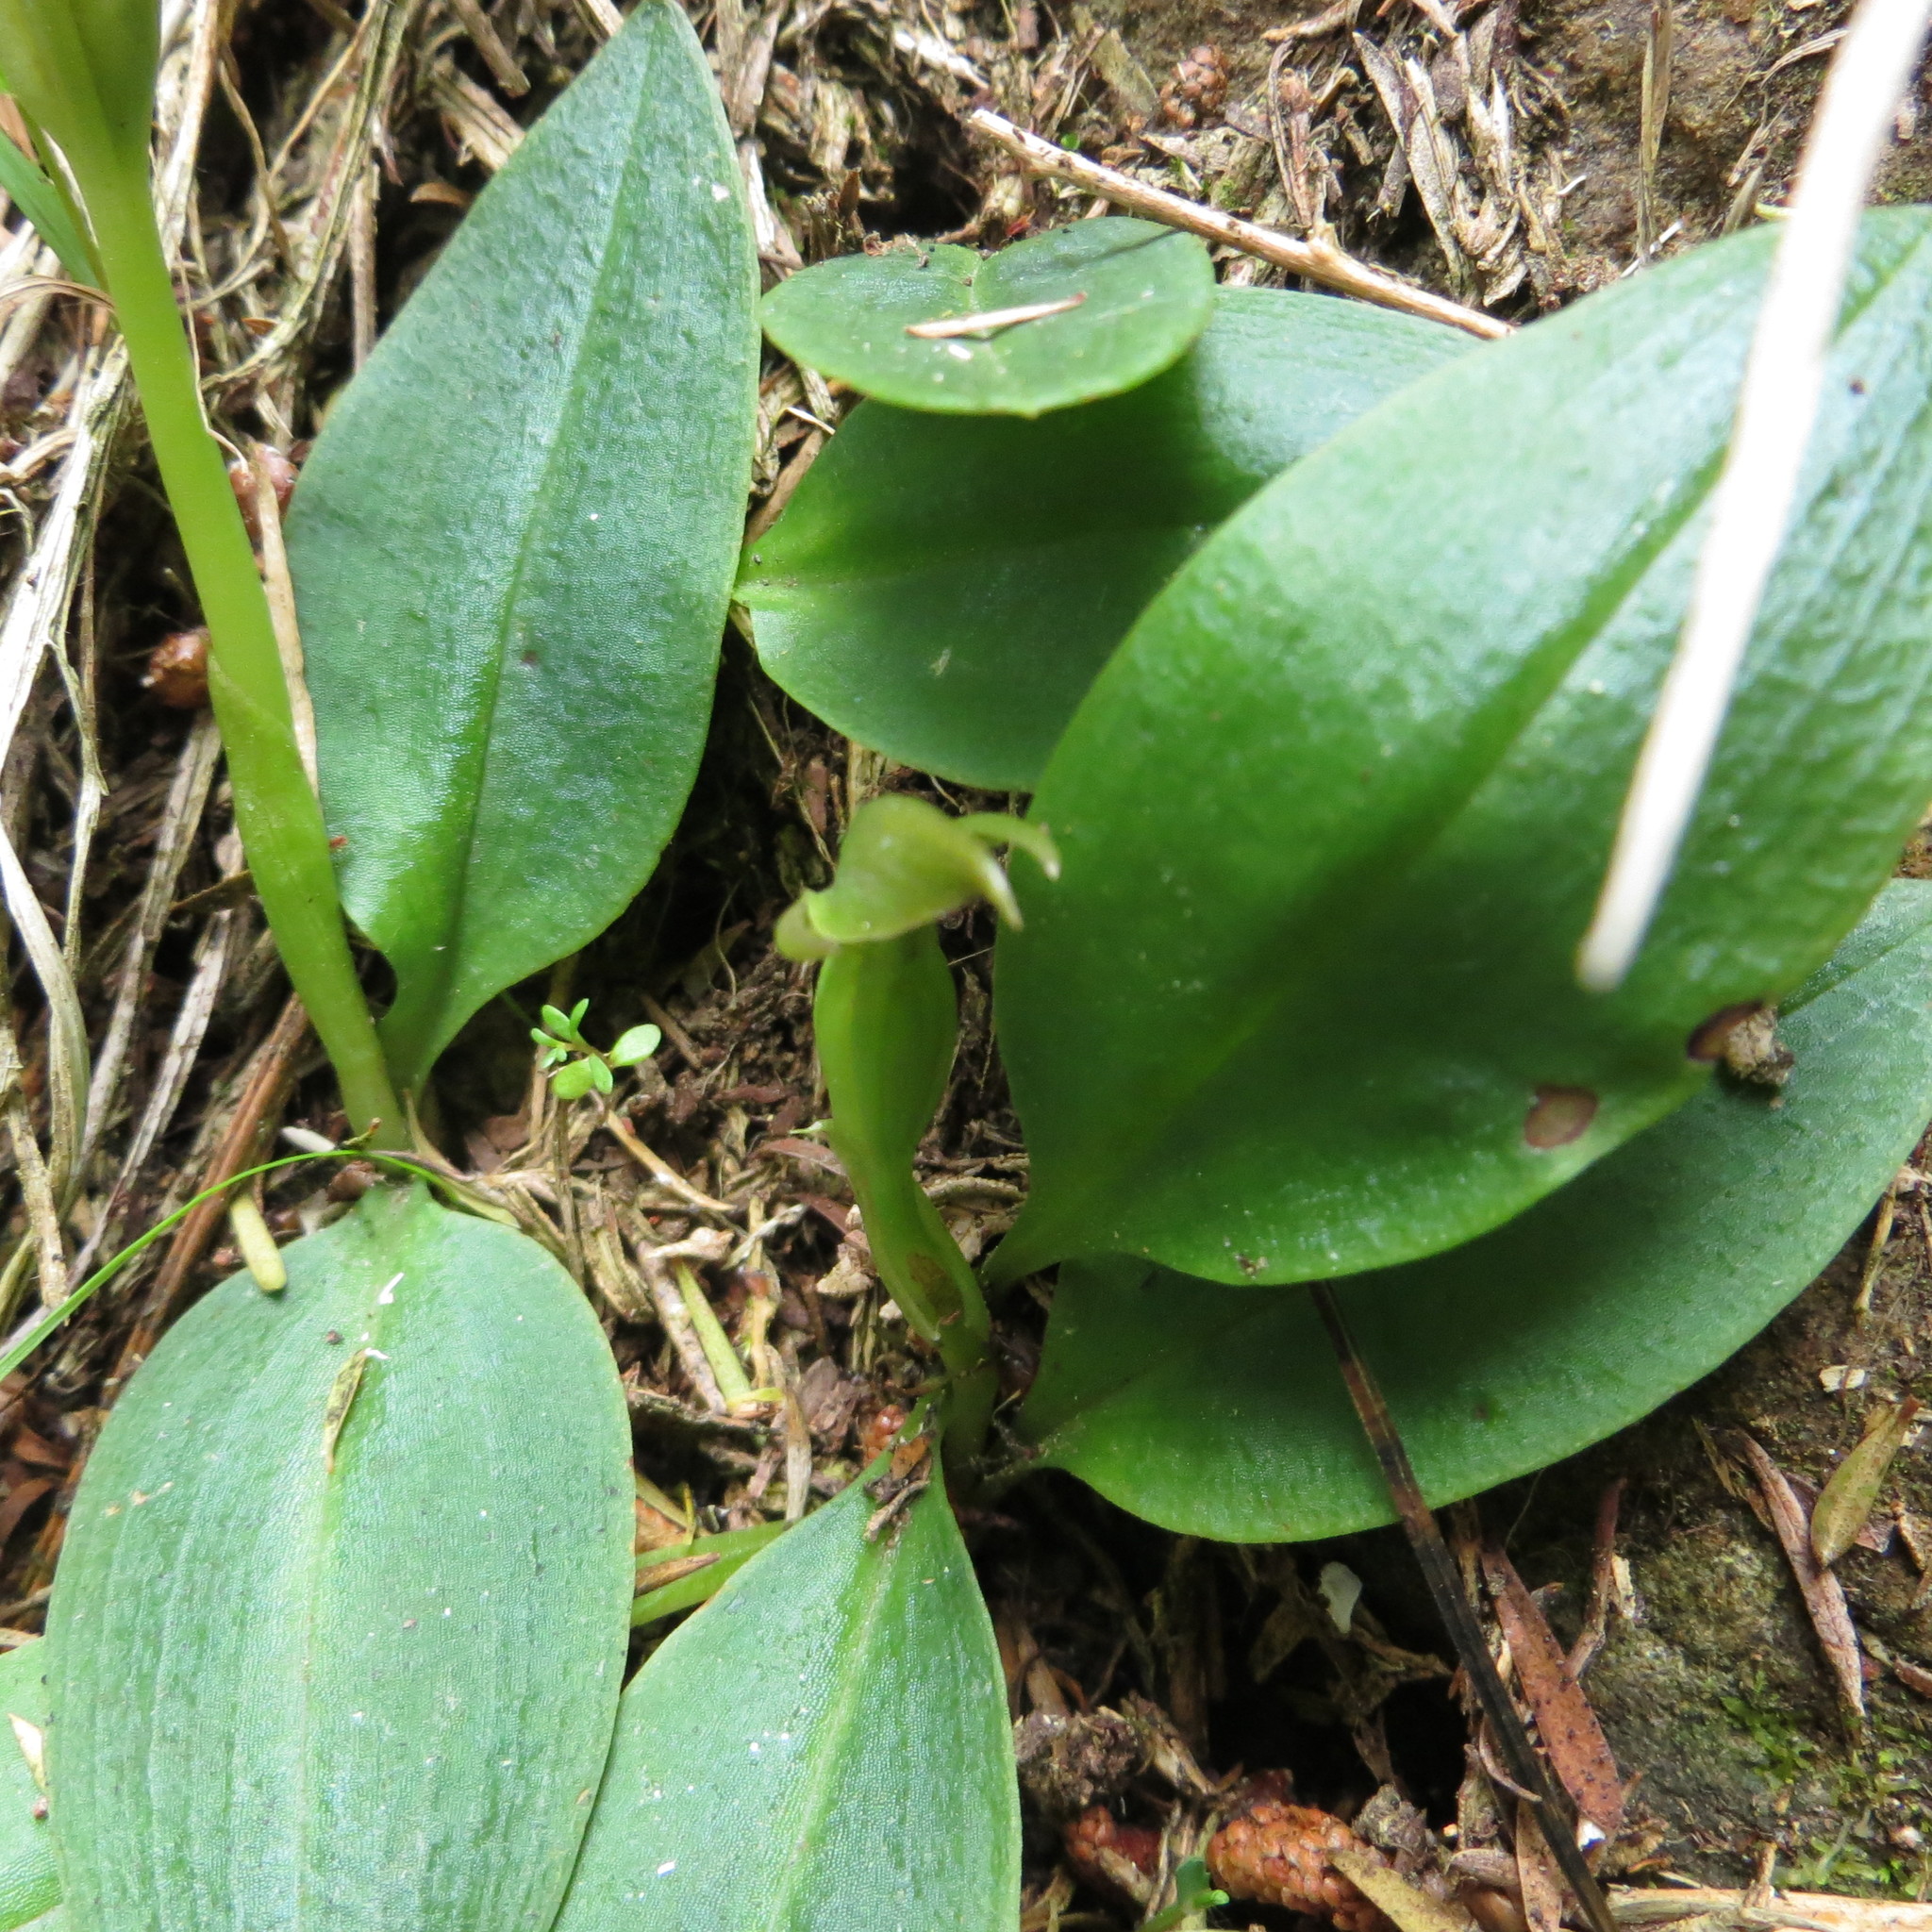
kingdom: Plantae
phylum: Tracheophyta
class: Liliopsida
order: Asparagales
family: Orchidaceae
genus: Chiloglottis
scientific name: Chiloglottis cornuta
